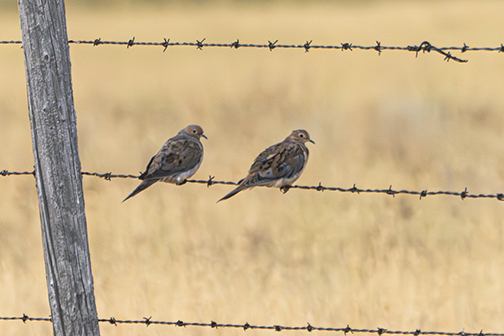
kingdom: Animalia
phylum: Chordata
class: Aves
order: Columbiformes
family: Columbidae
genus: Zenaida
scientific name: Zenaida macroura
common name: Mourning dove
